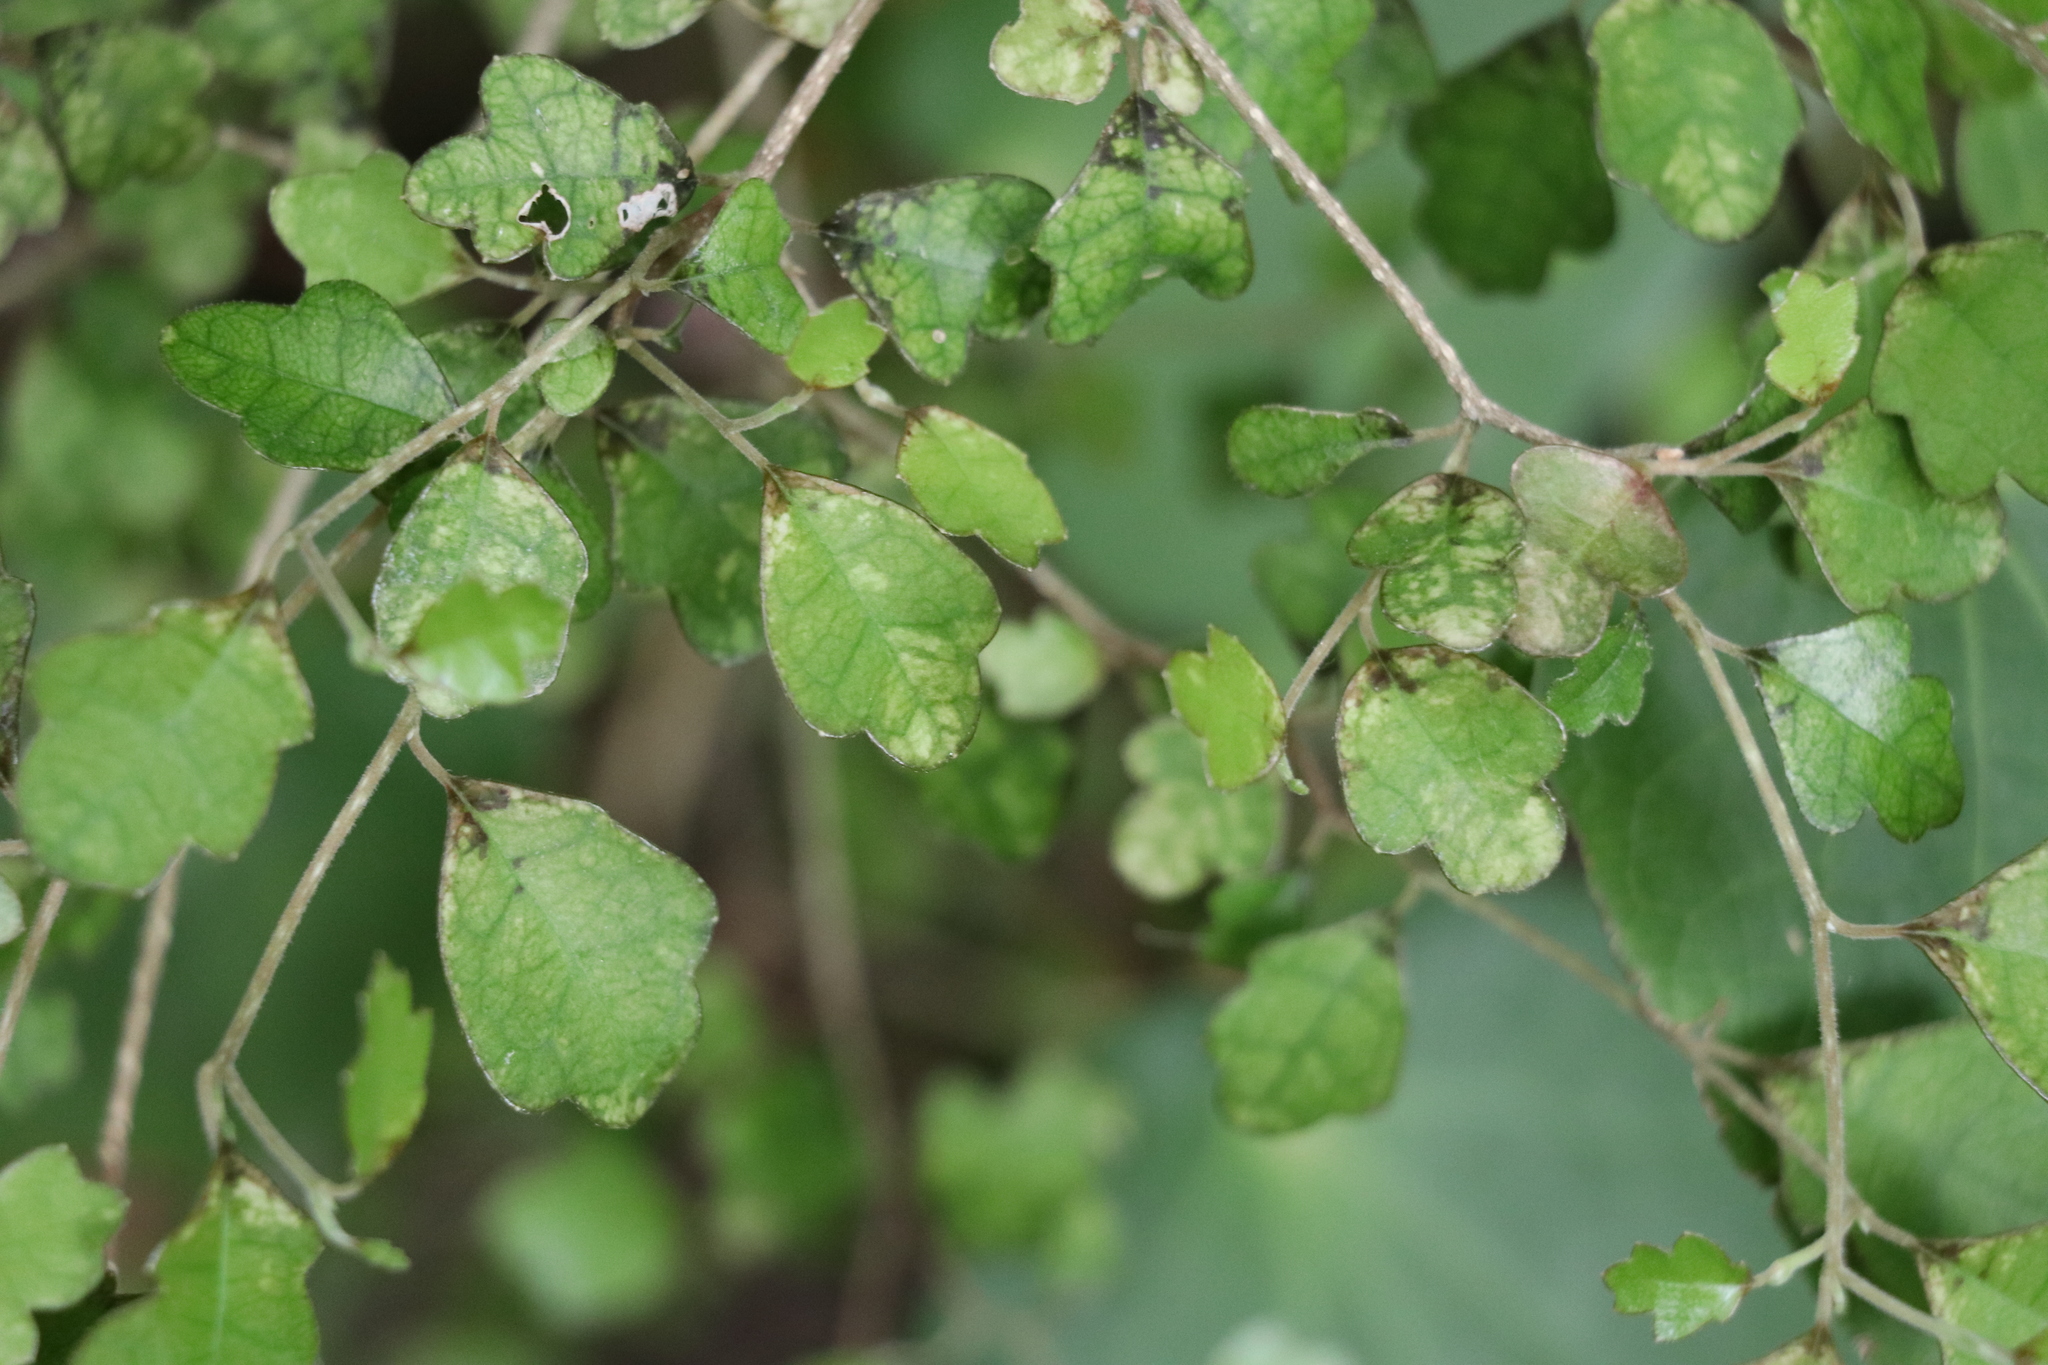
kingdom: Plantae
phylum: Tracheophyta
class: Magnoliopsida
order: Apiales
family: Pennantiaceae
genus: Pennantia
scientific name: Pennantia corymbosa
